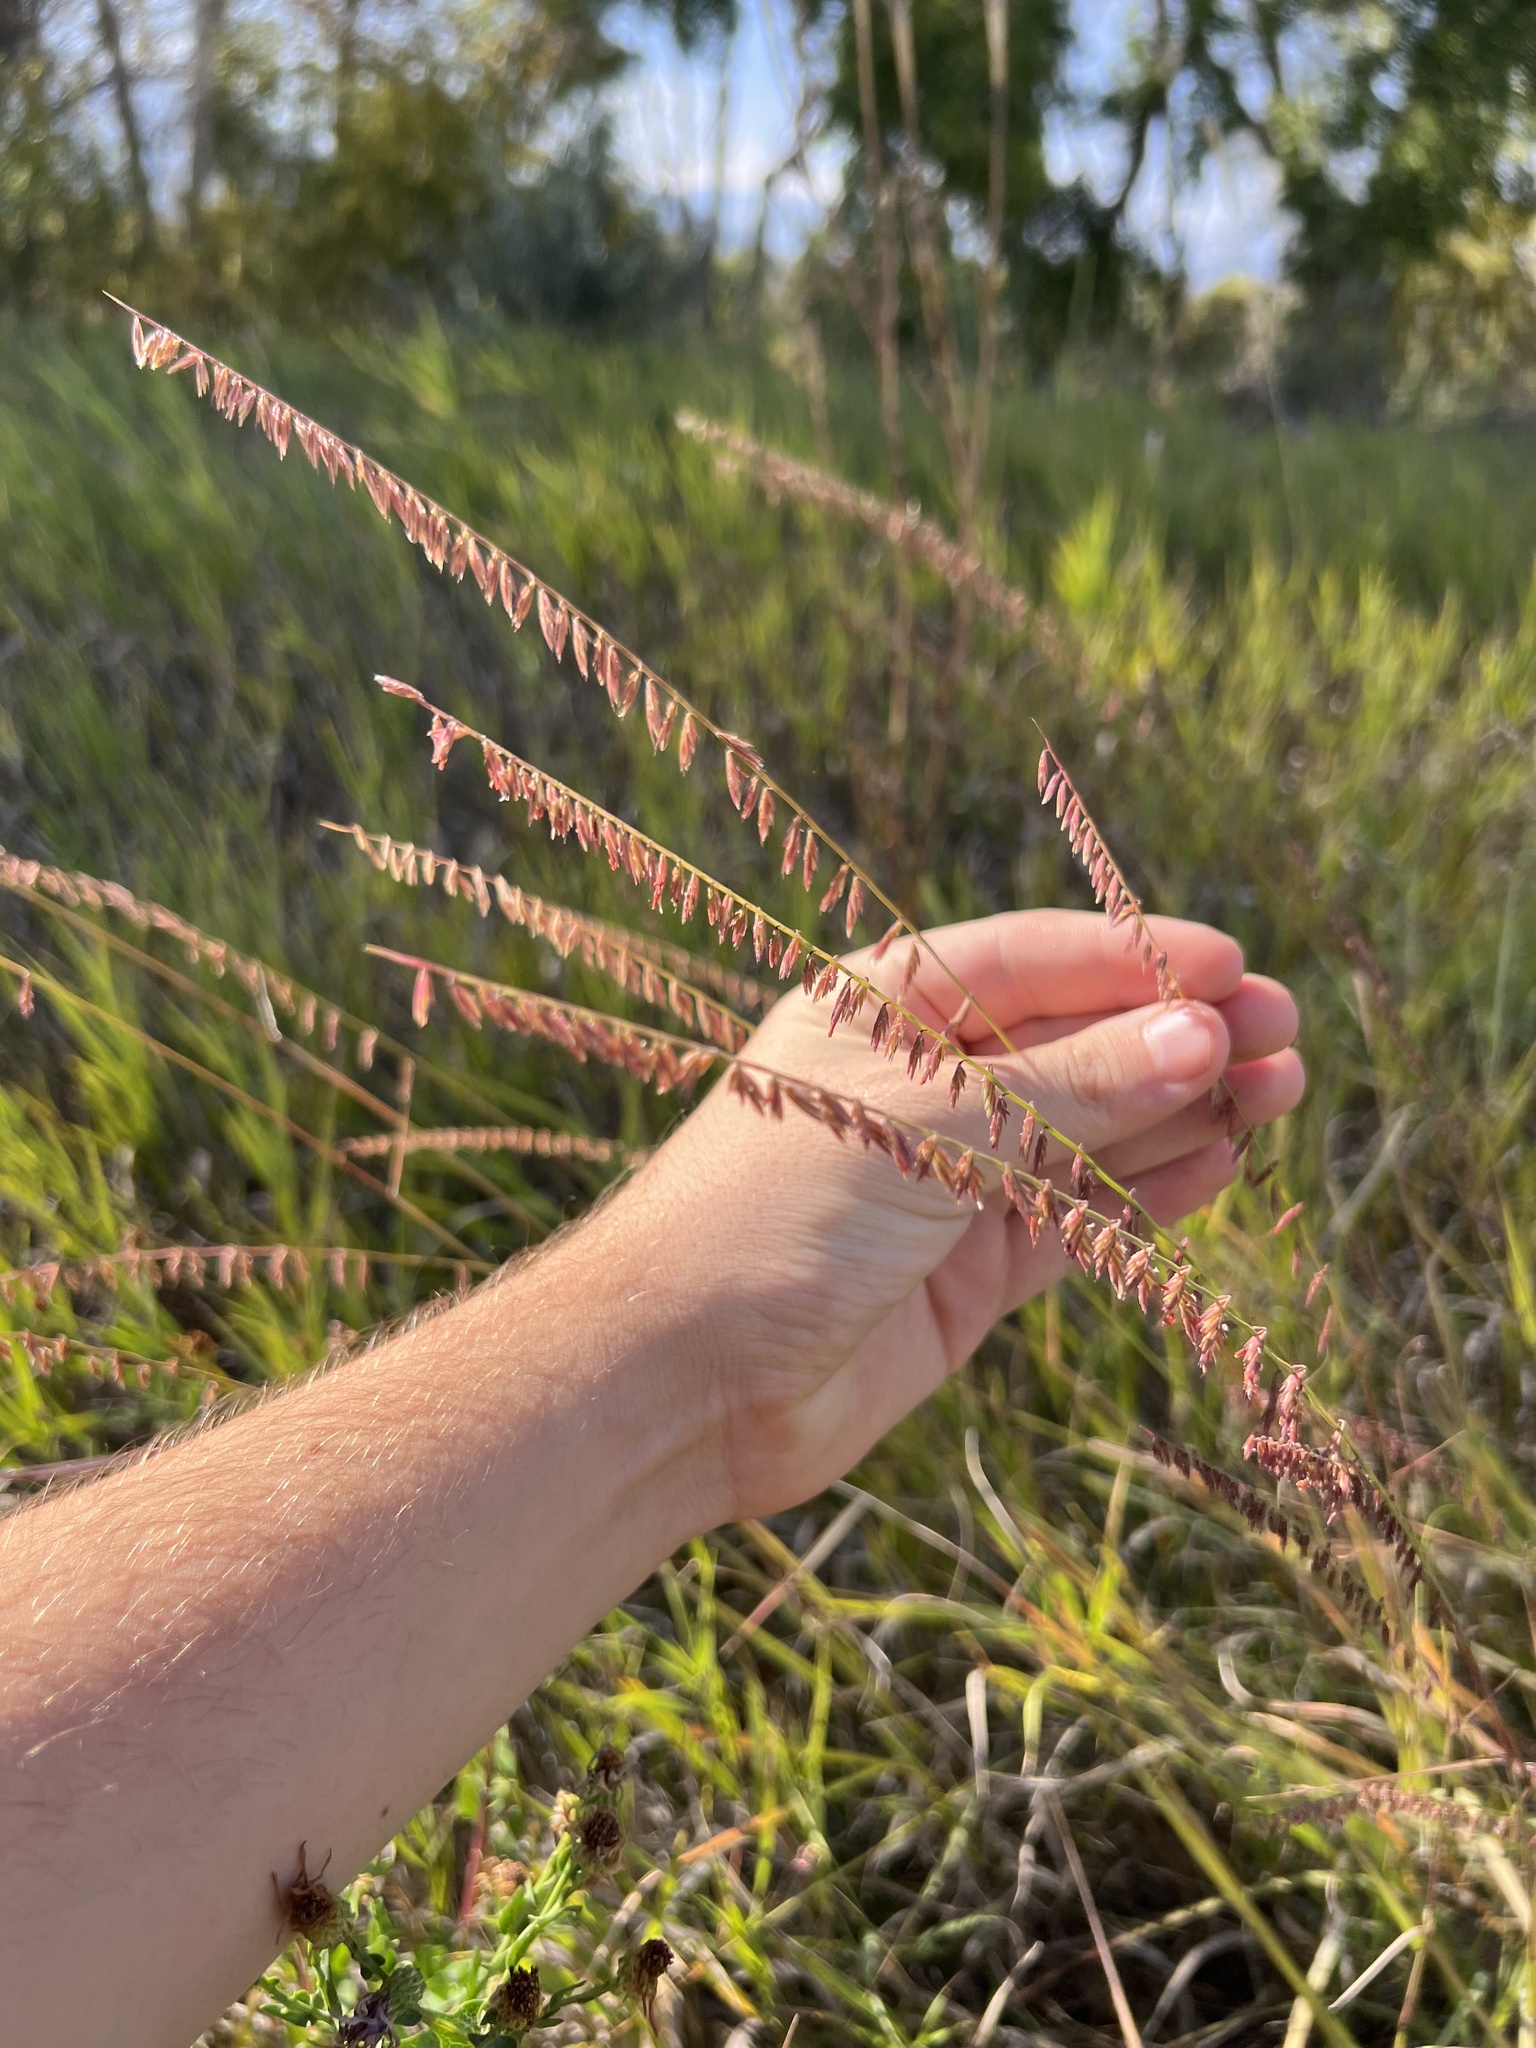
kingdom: Plantae
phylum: Tracheophyta
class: Liliopsida
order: Poales
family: Poaceae
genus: Bouteloua
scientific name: Bouteloua curtipendula
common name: Side-oats grama
